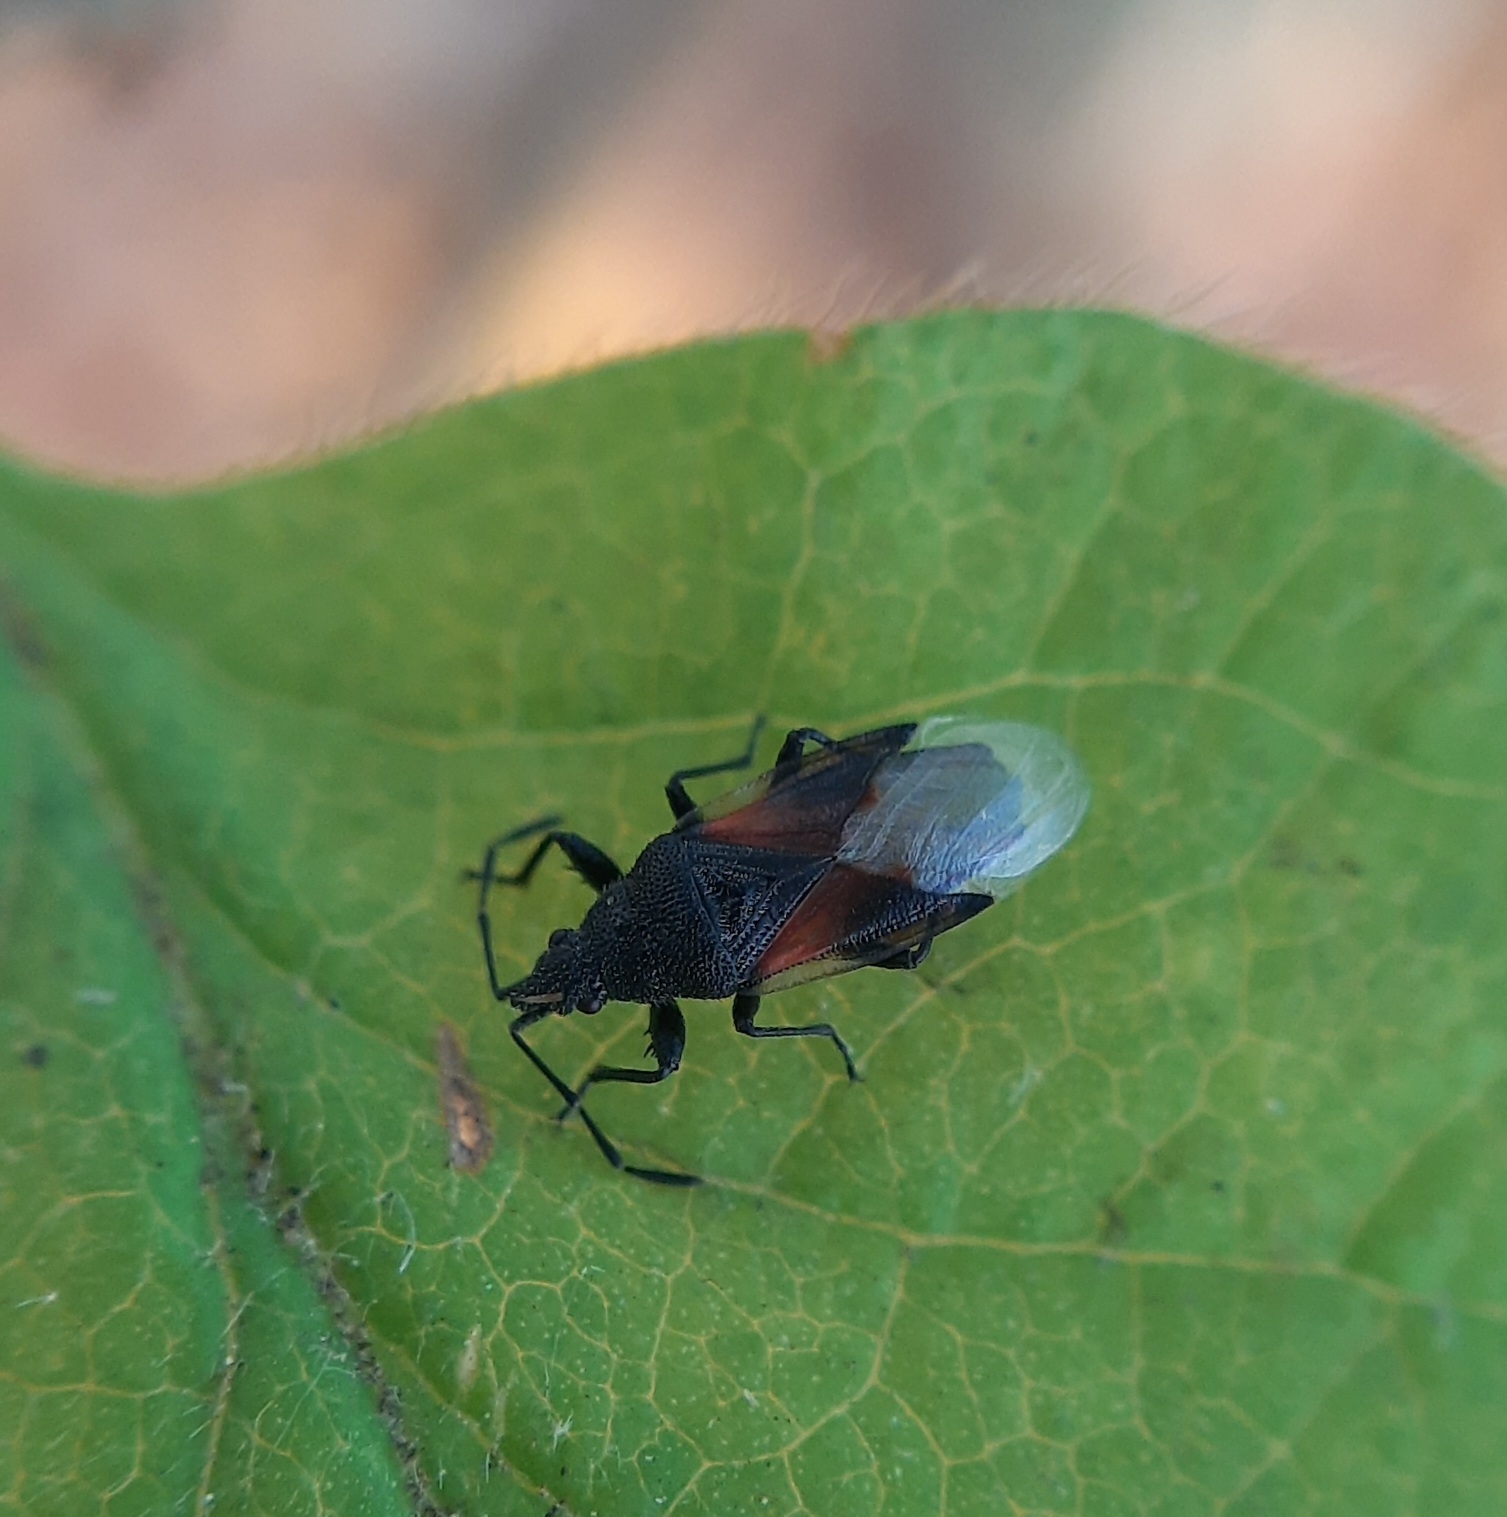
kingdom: Animalia
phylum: Arthropoda
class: Insecta
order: Hemiptera
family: Oxycarenidae
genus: Oxycarenus
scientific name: Oxycarenus lavaterae
